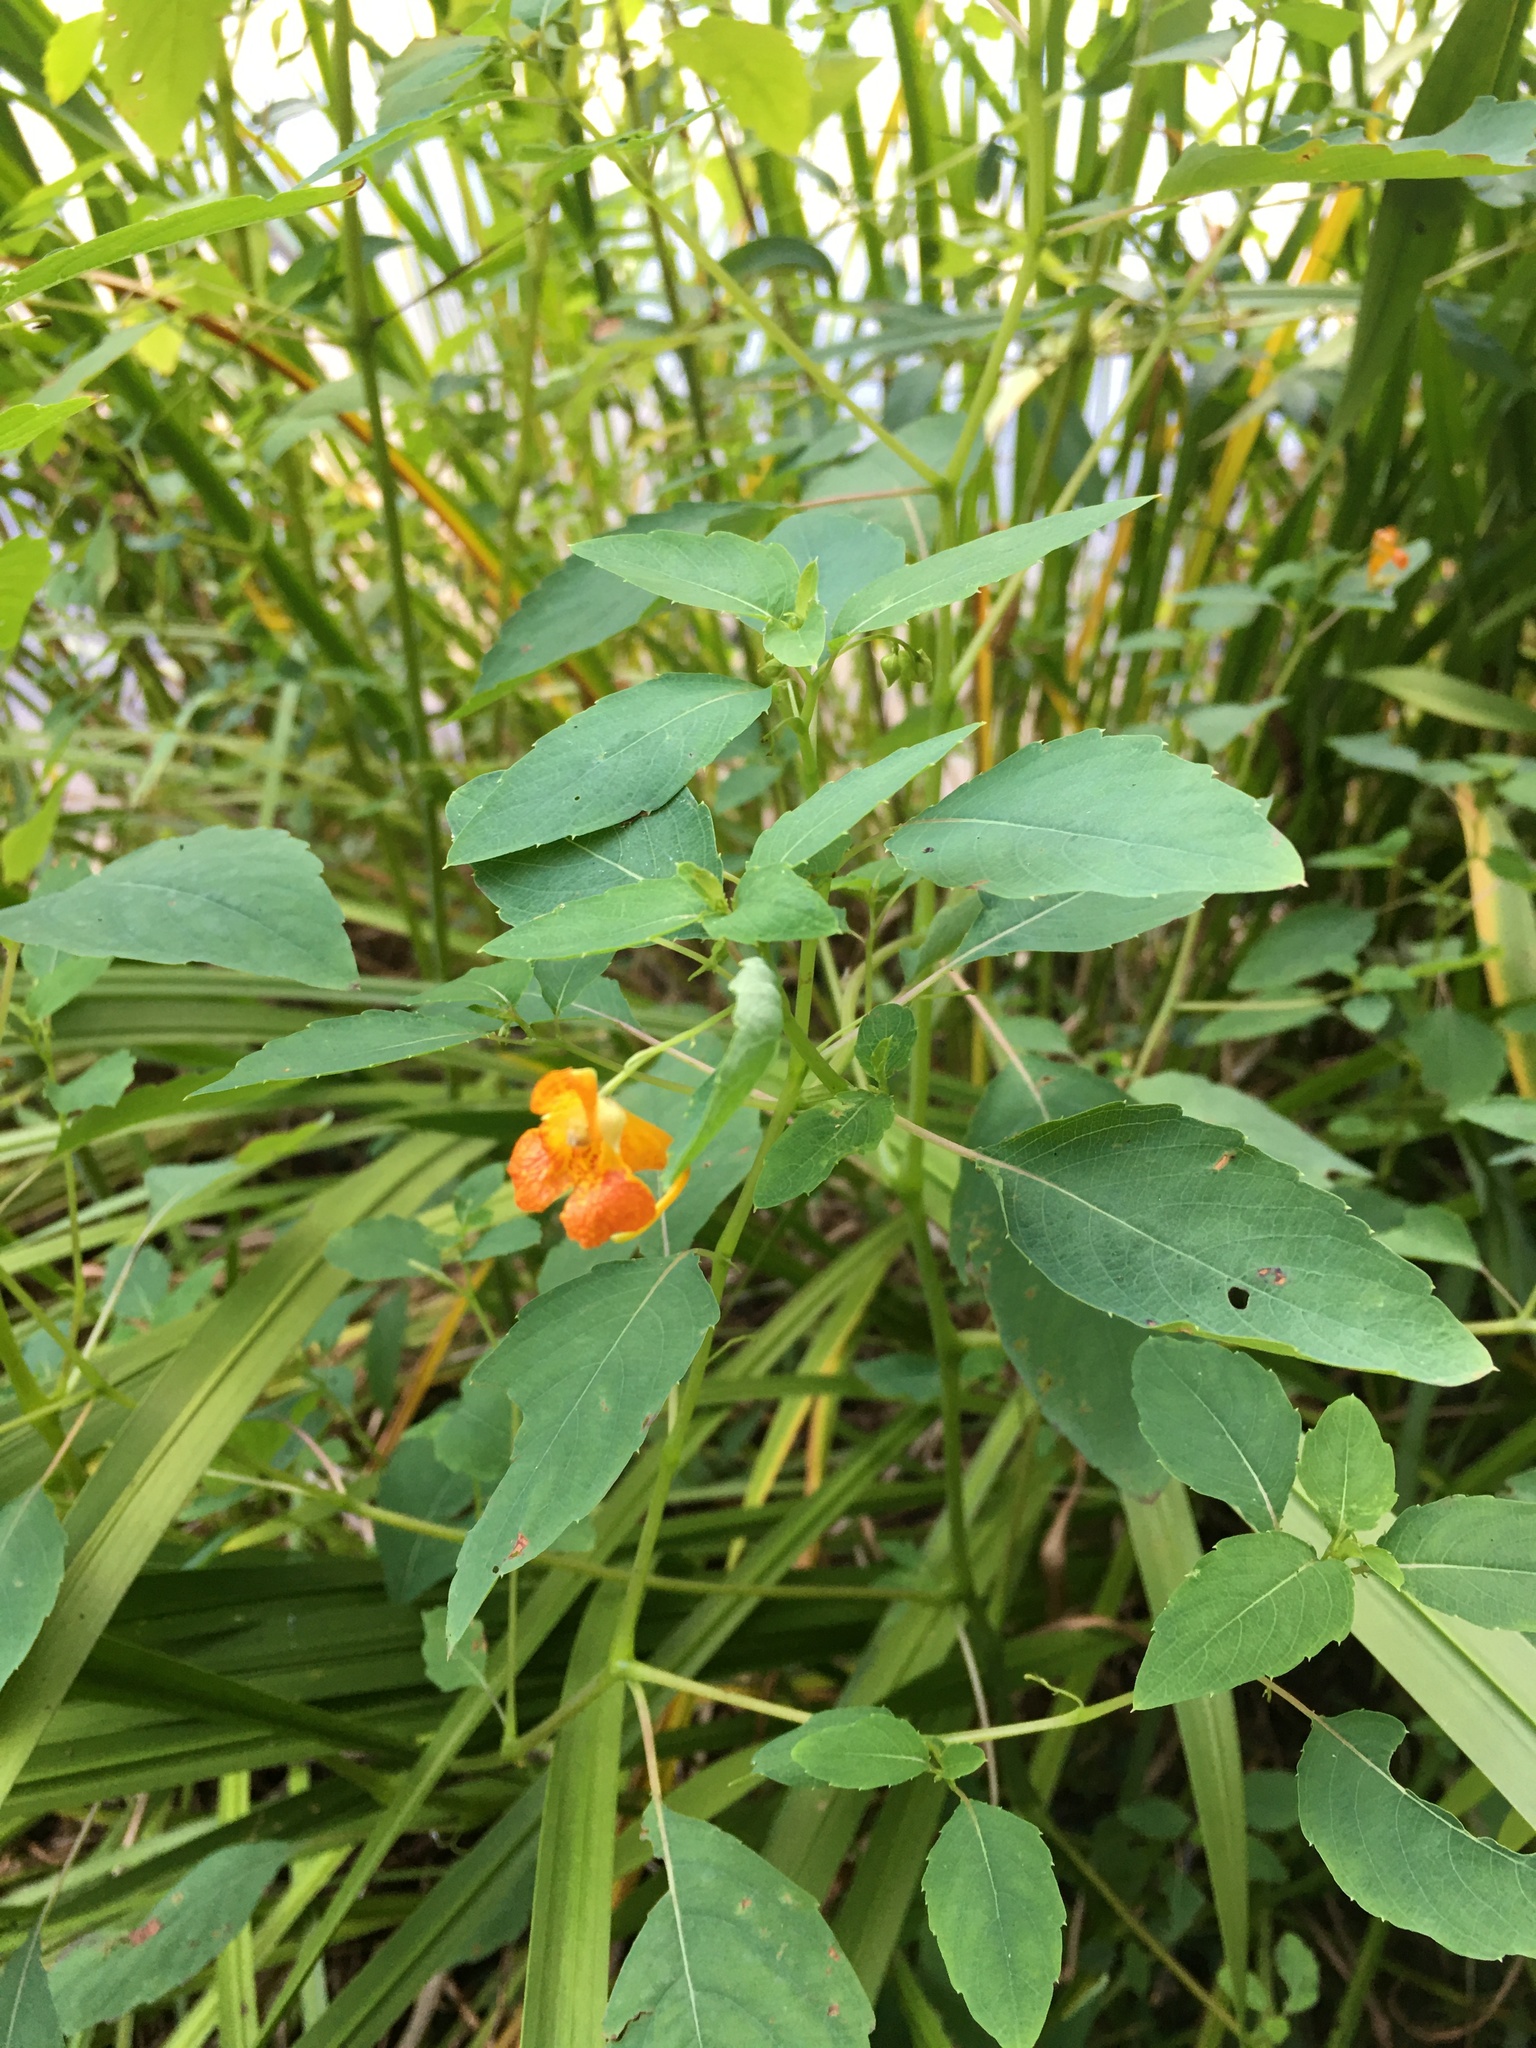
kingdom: Plantae
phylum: Tracheophyta
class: Magnoliopsida
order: Ericales
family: Balsaminaceae
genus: Impatiens
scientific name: Impatiens capensis
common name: Orange balsam
